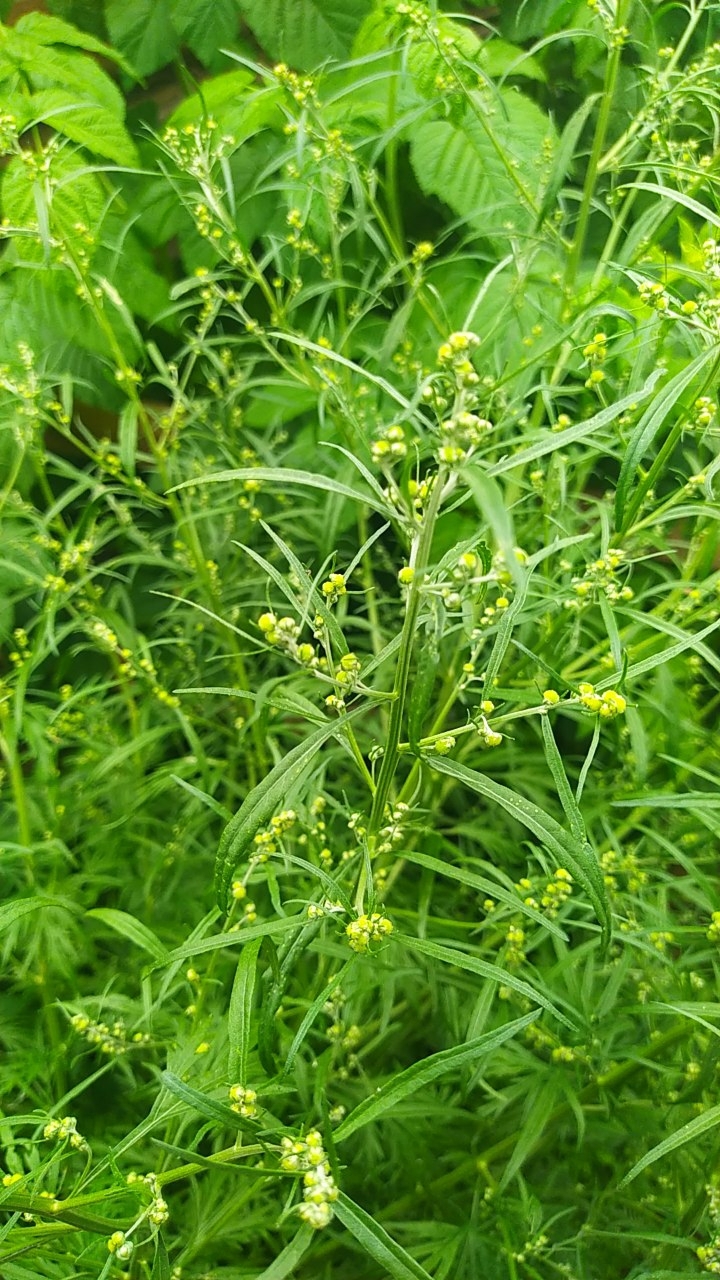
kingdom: Plantae
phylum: Tracheophyta
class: Magnoliopsida
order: Asterales
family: Asteraceae
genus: Artemisia
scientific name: Artemisia sieversiana
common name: Sieversian wormwood
